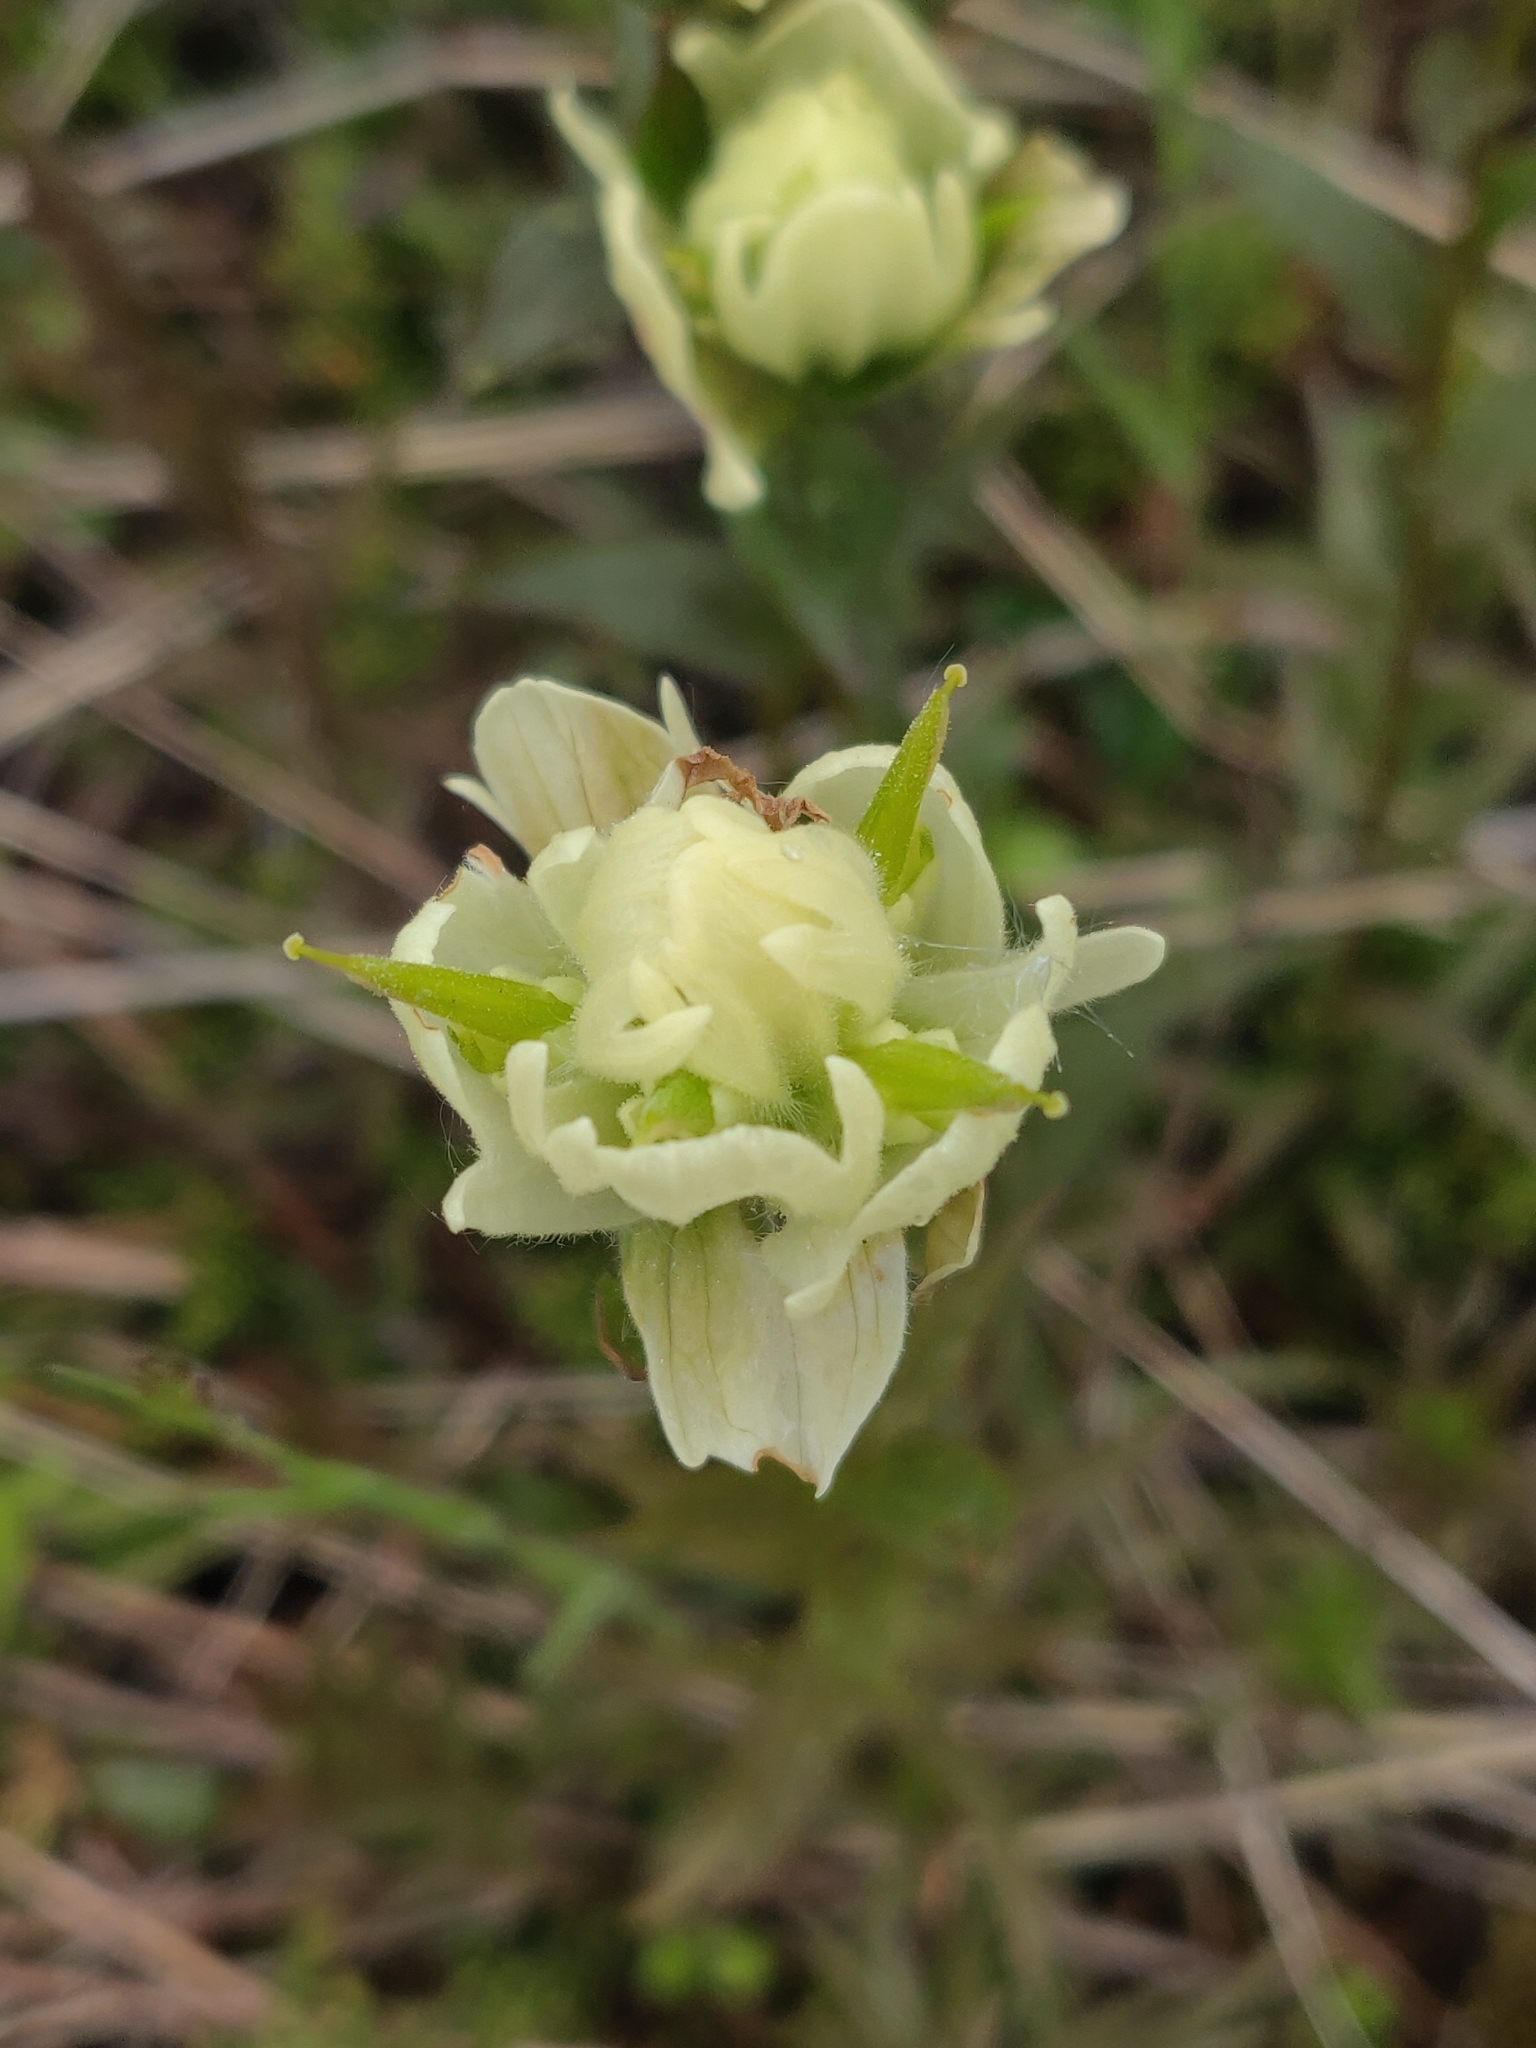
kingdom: Plantae
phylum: Tracheophyta
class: Magnoliopsida
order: Lamiales
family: Orobanchaceae
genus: Castilleja
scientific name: Castilleja septentrionalis
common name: Northeastern paintbrush
